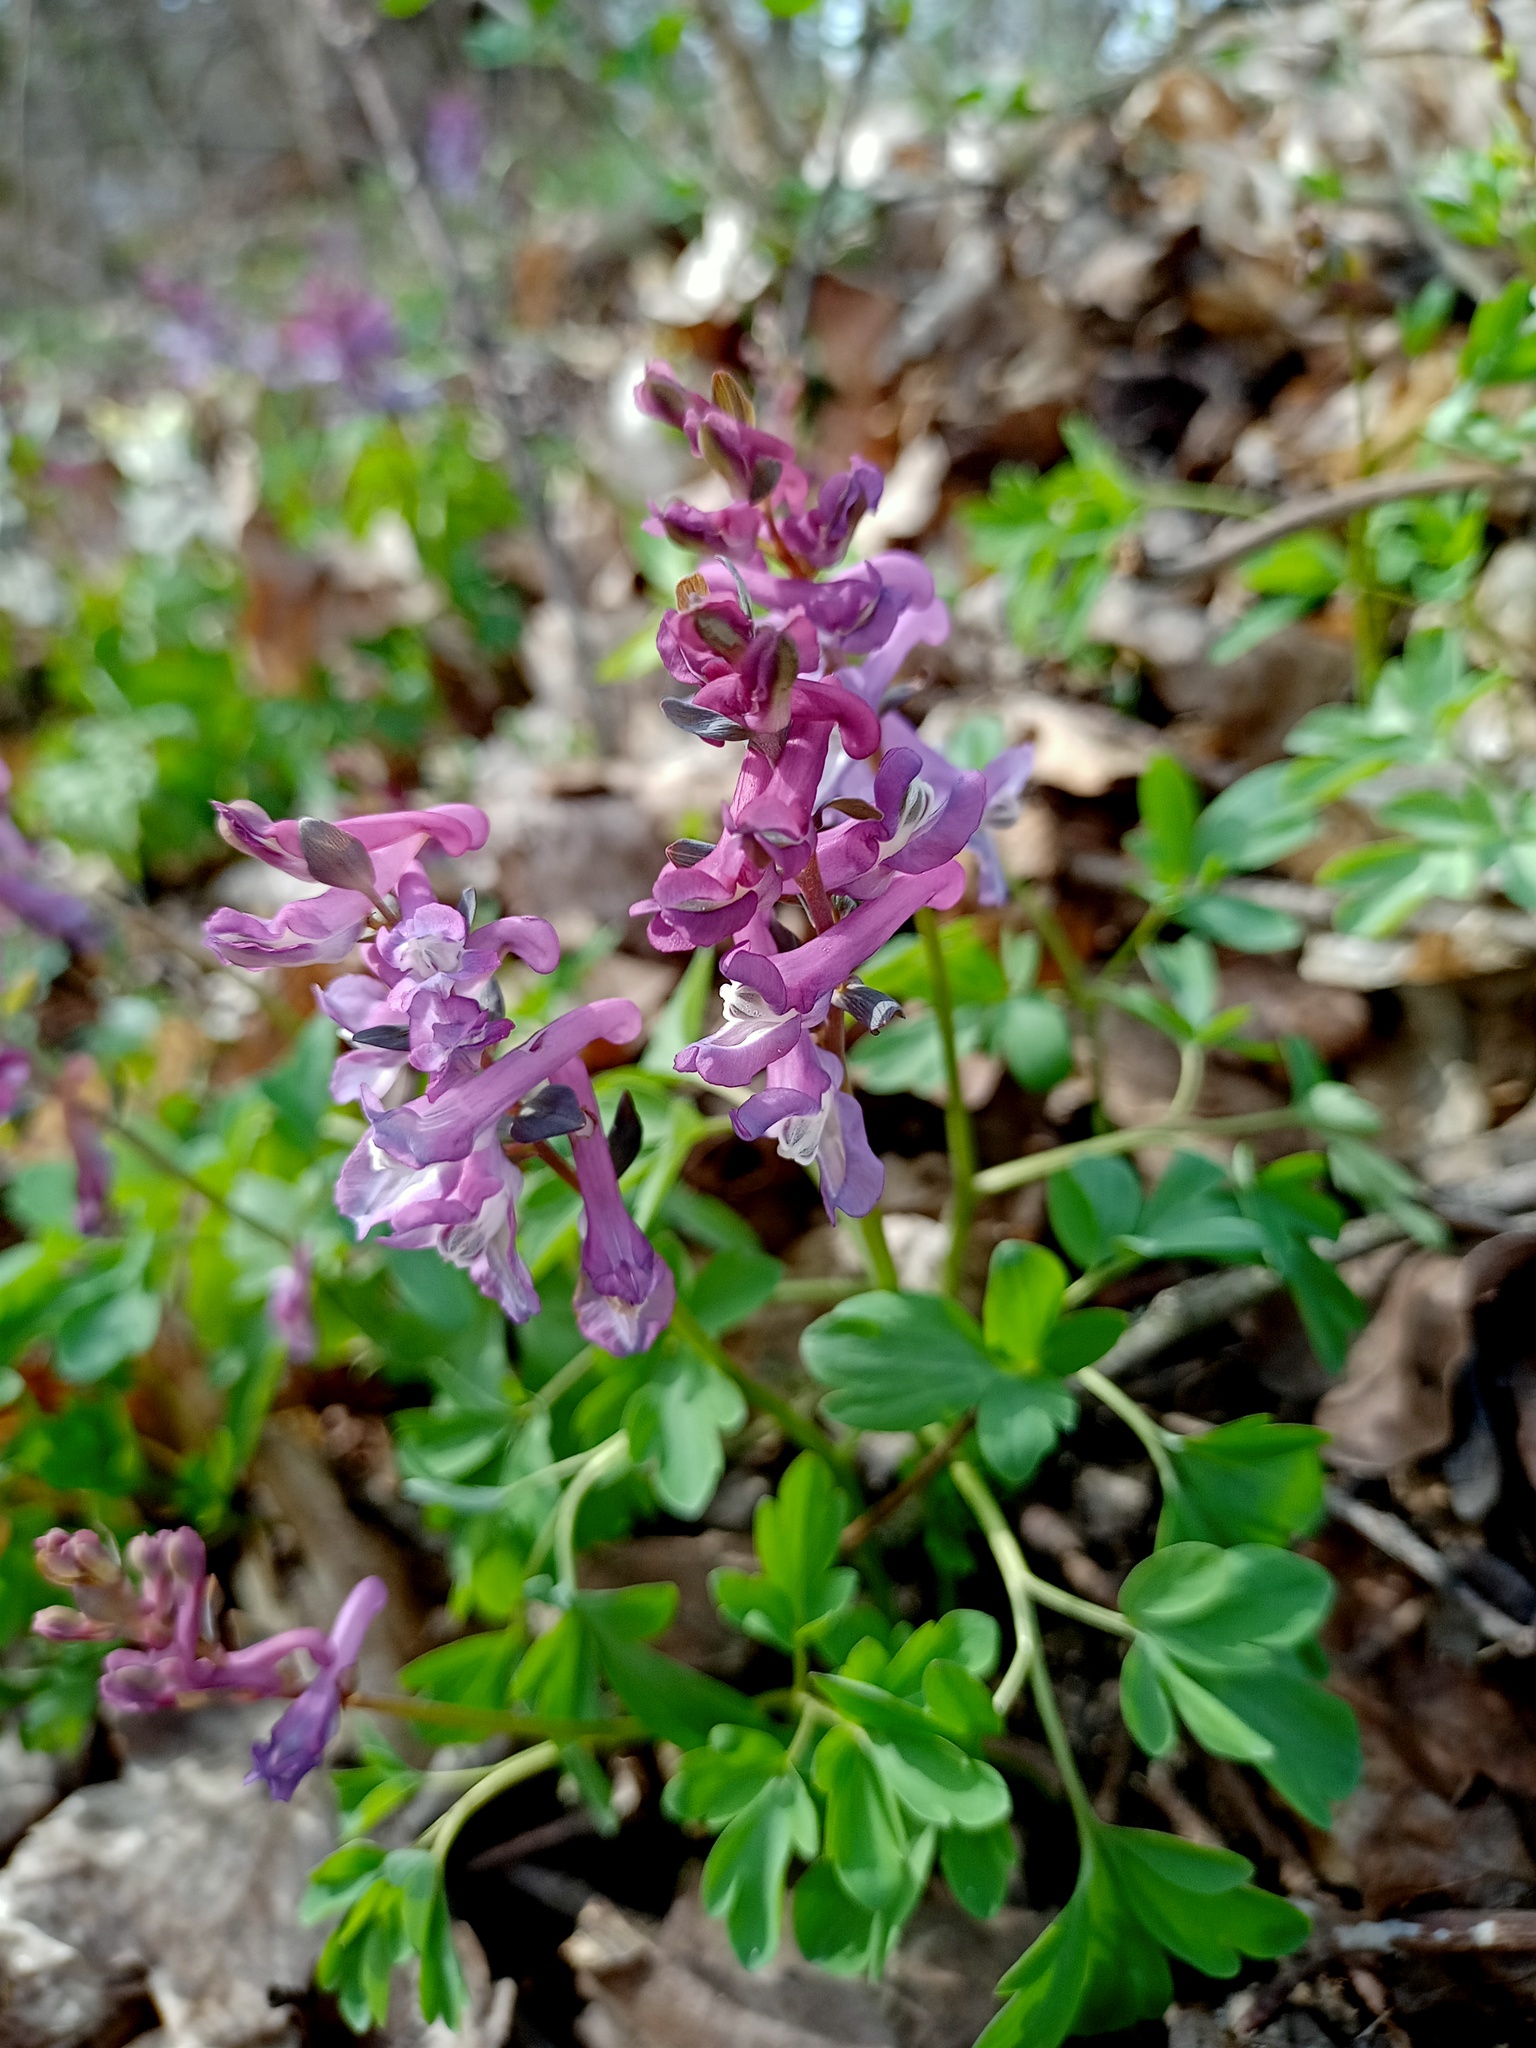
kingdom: Plantae
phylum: Tracheophyta
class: Magnoliopsida
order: Ranunculales
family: Papaveraceae
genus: Corydalis
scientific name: Corydalis cava
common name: Hollowroot
